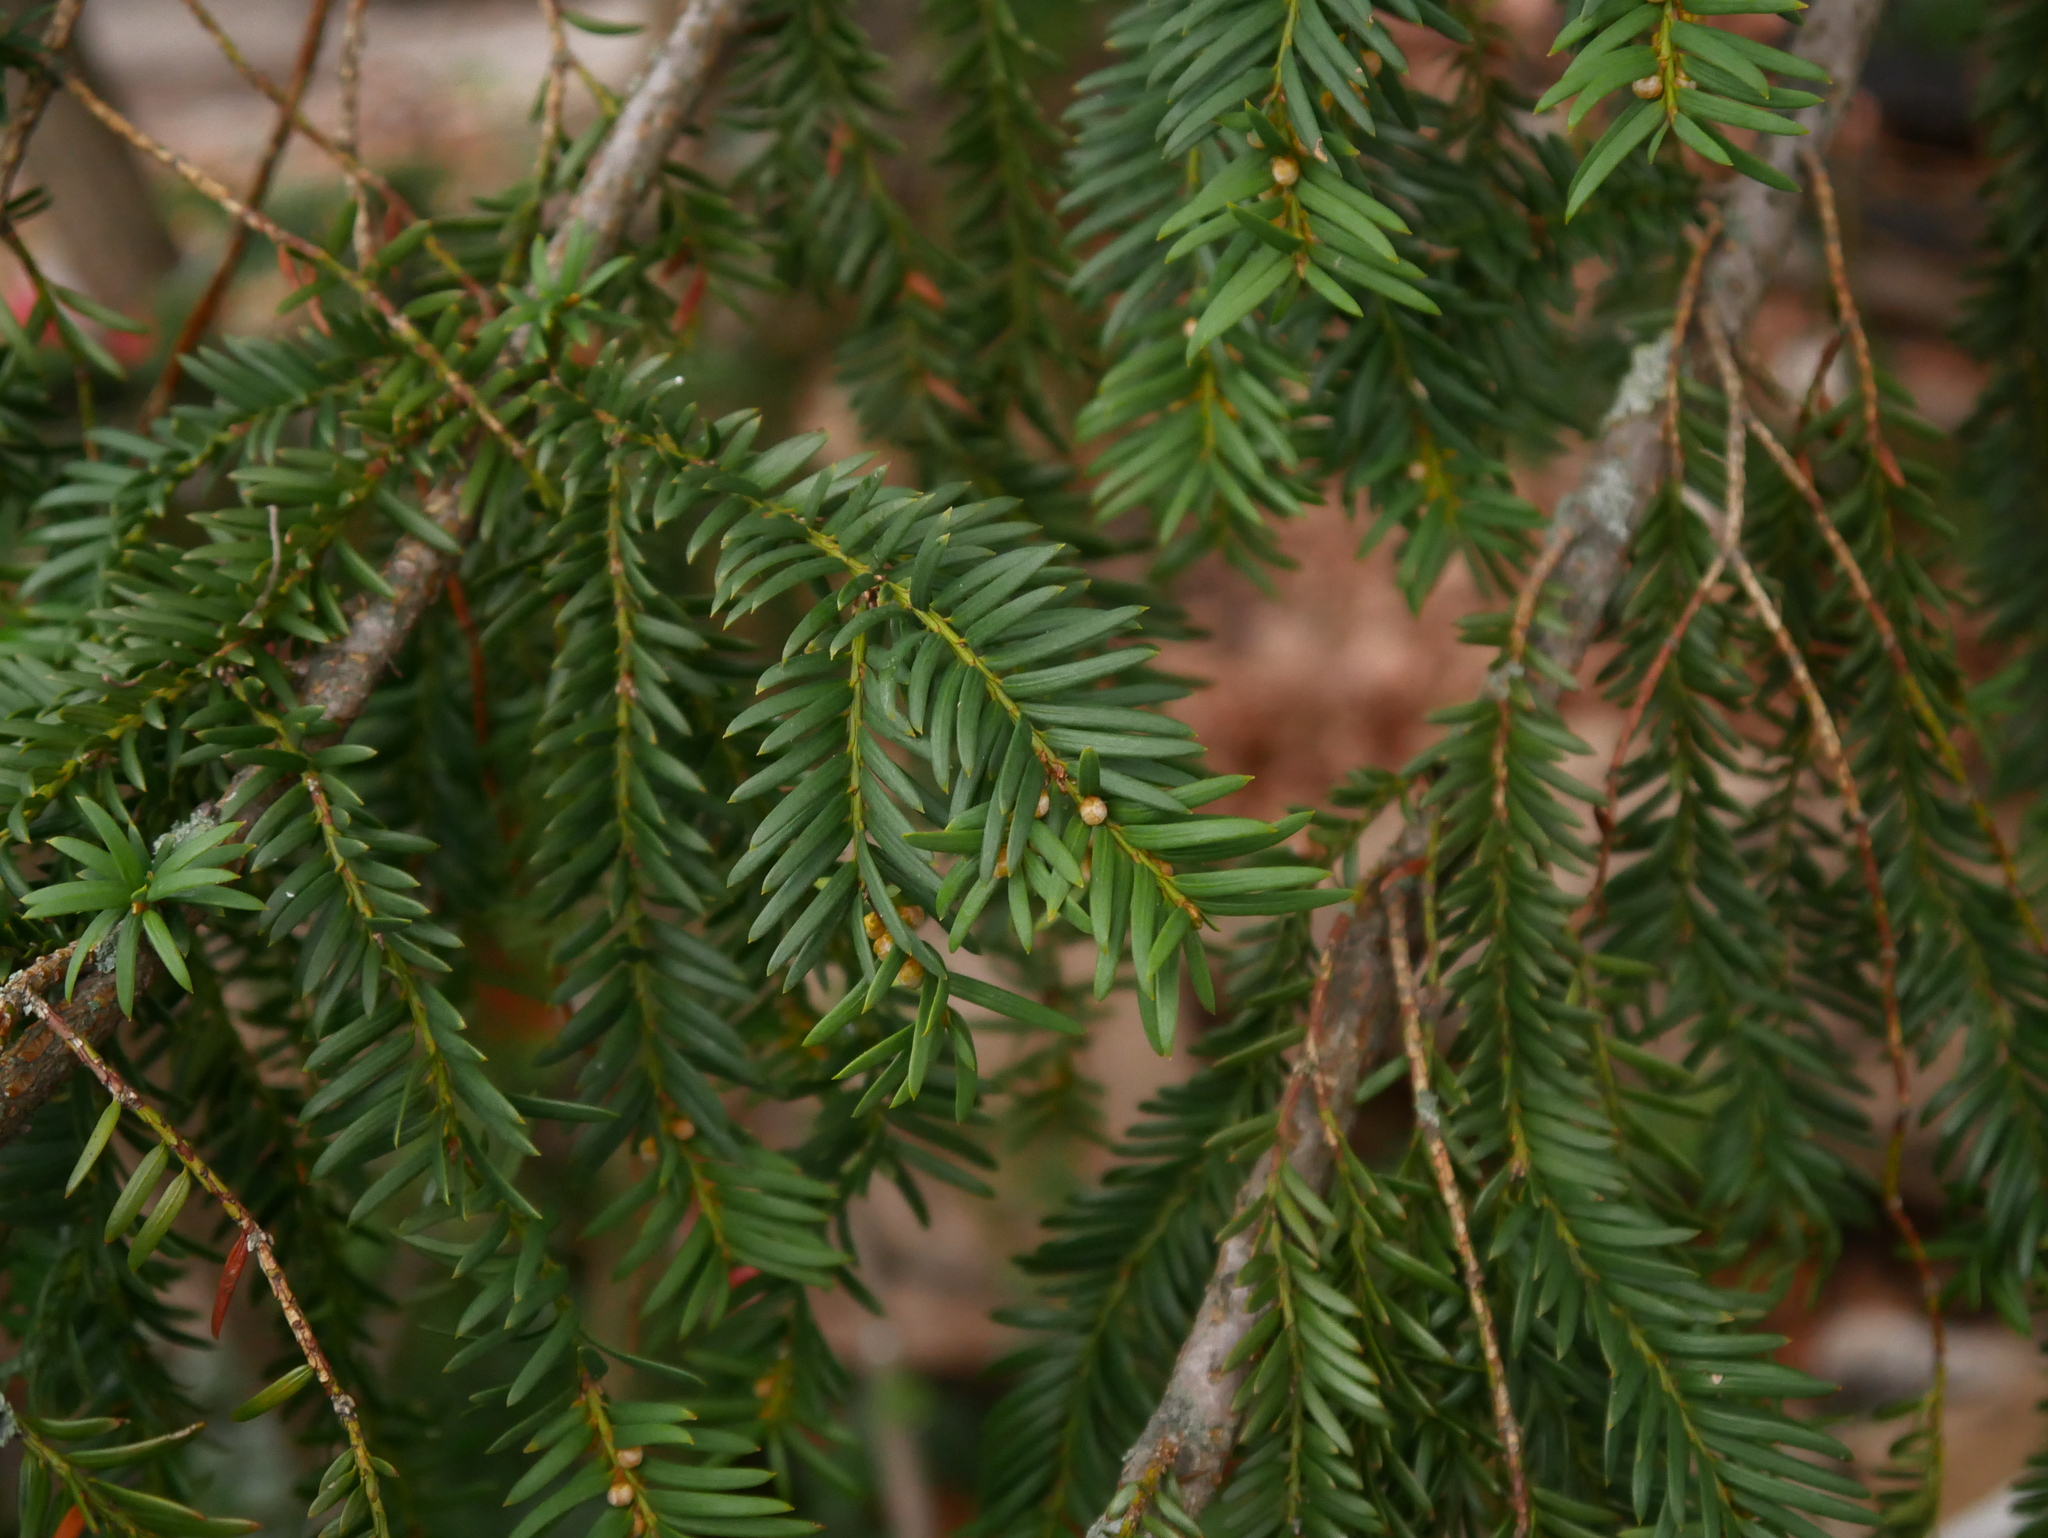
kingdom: Plantae
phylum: Tracheophyta
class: Pinopsida
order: Pinales
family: Taxaceae
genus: Taxus
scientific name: Taxus baccata
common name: Yew
